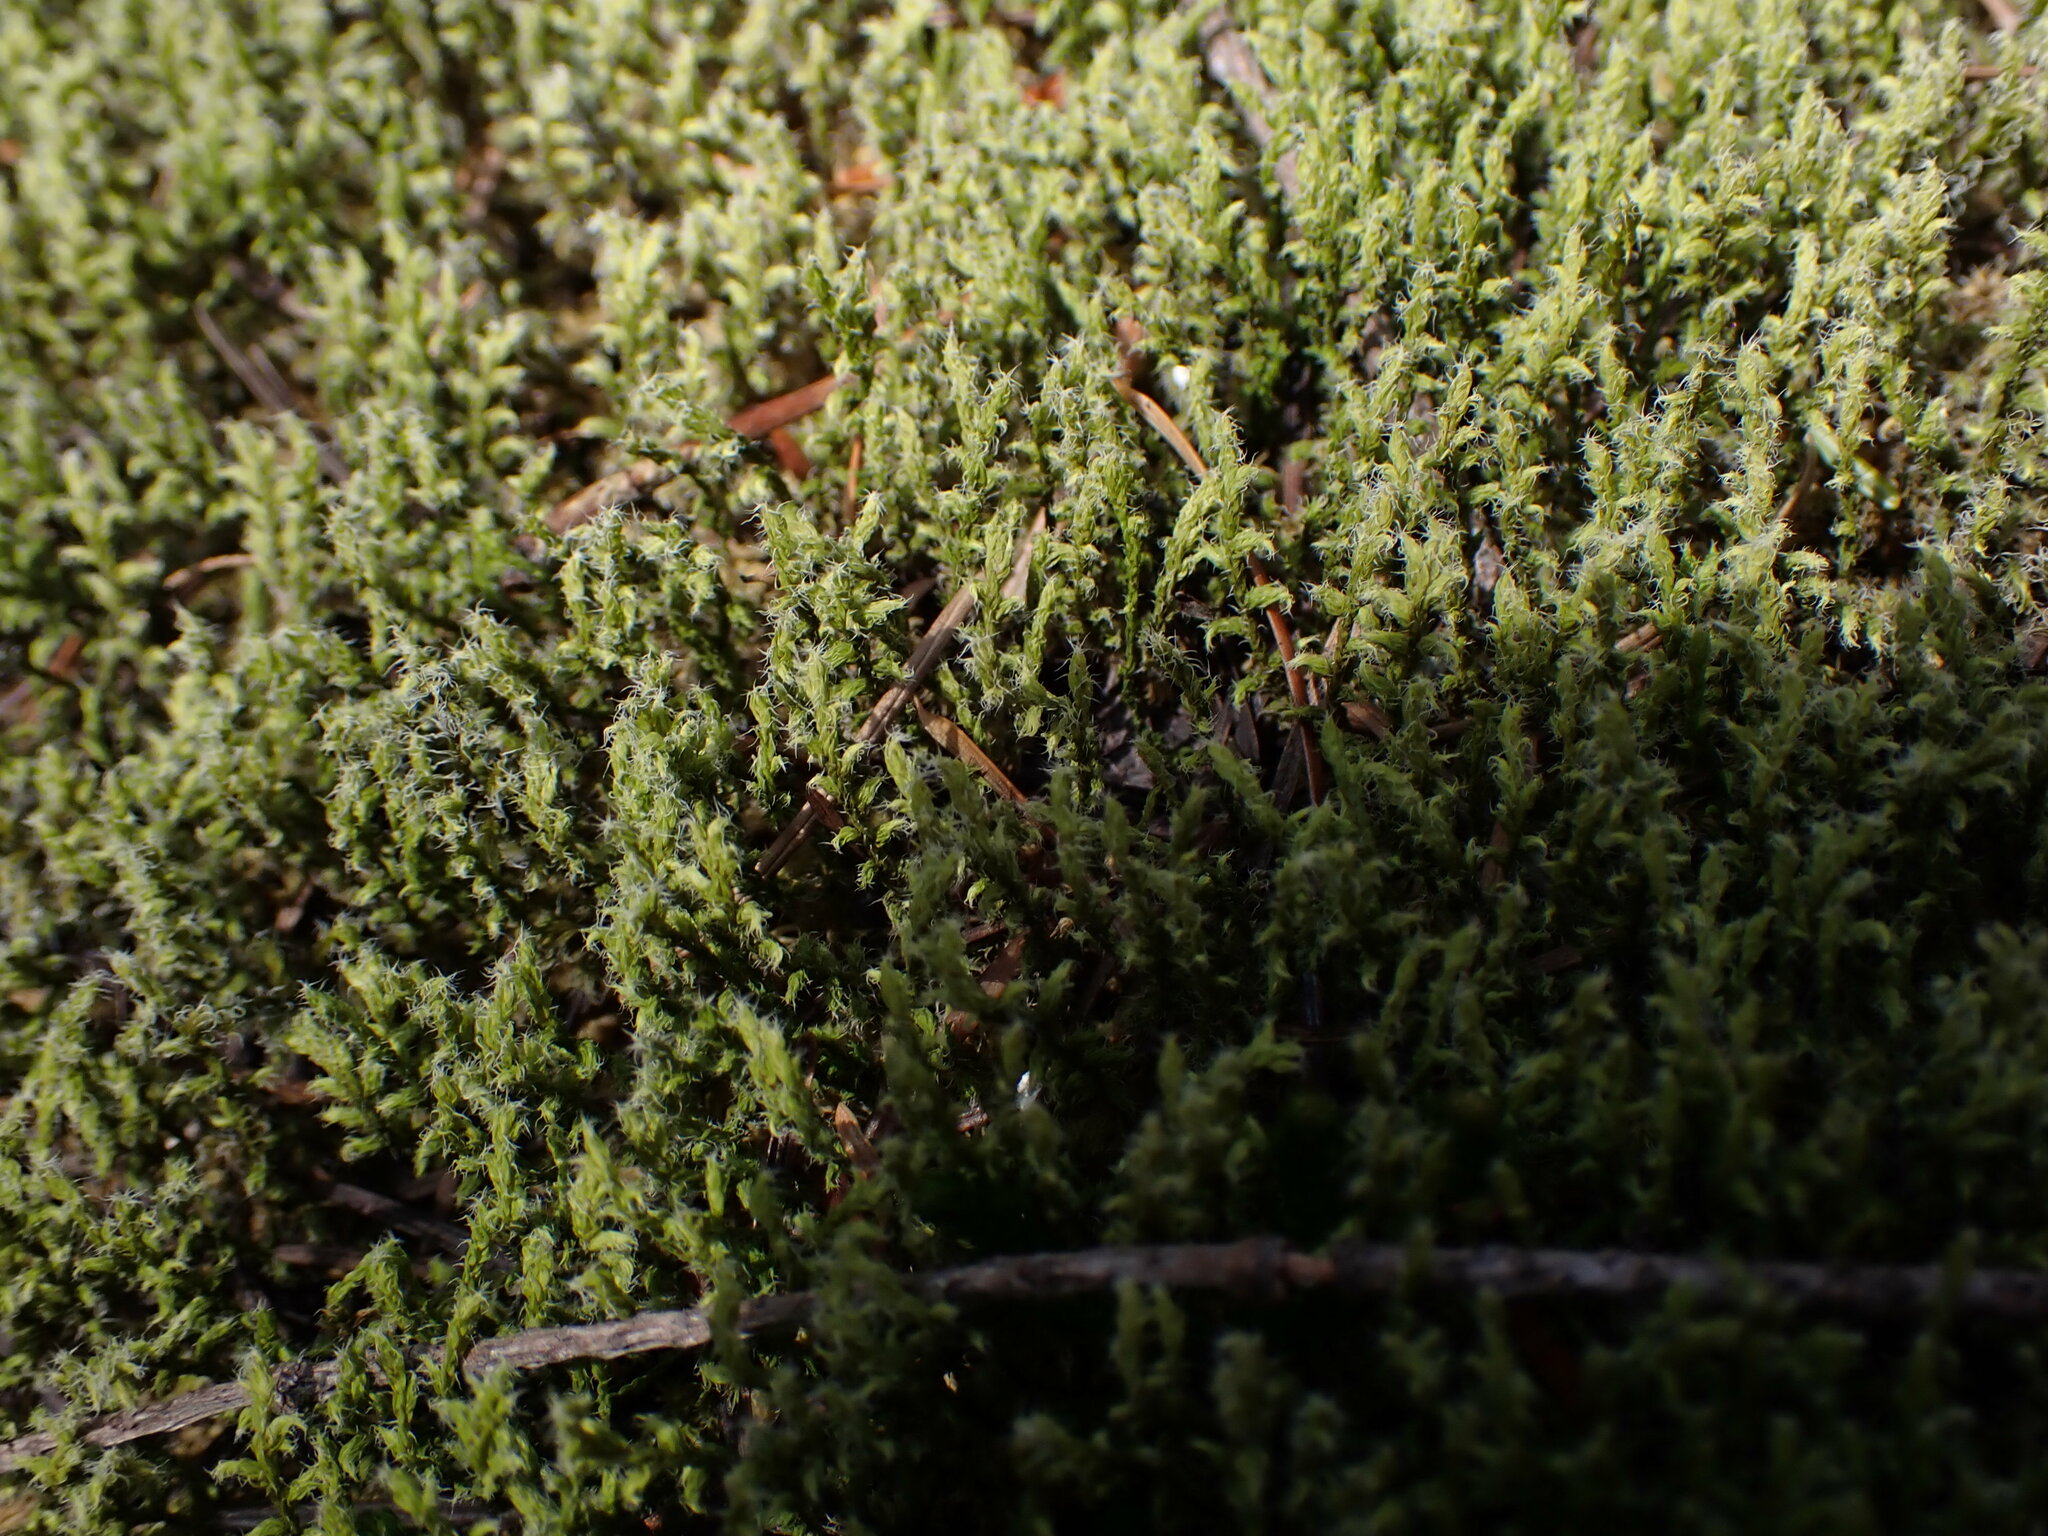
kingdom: Plantae
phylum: Bryophyta
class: Bryopsida
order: Grimmiales
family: Grimmiaceae
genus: Niphotrichum
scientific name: Niphotrichum elongatum
